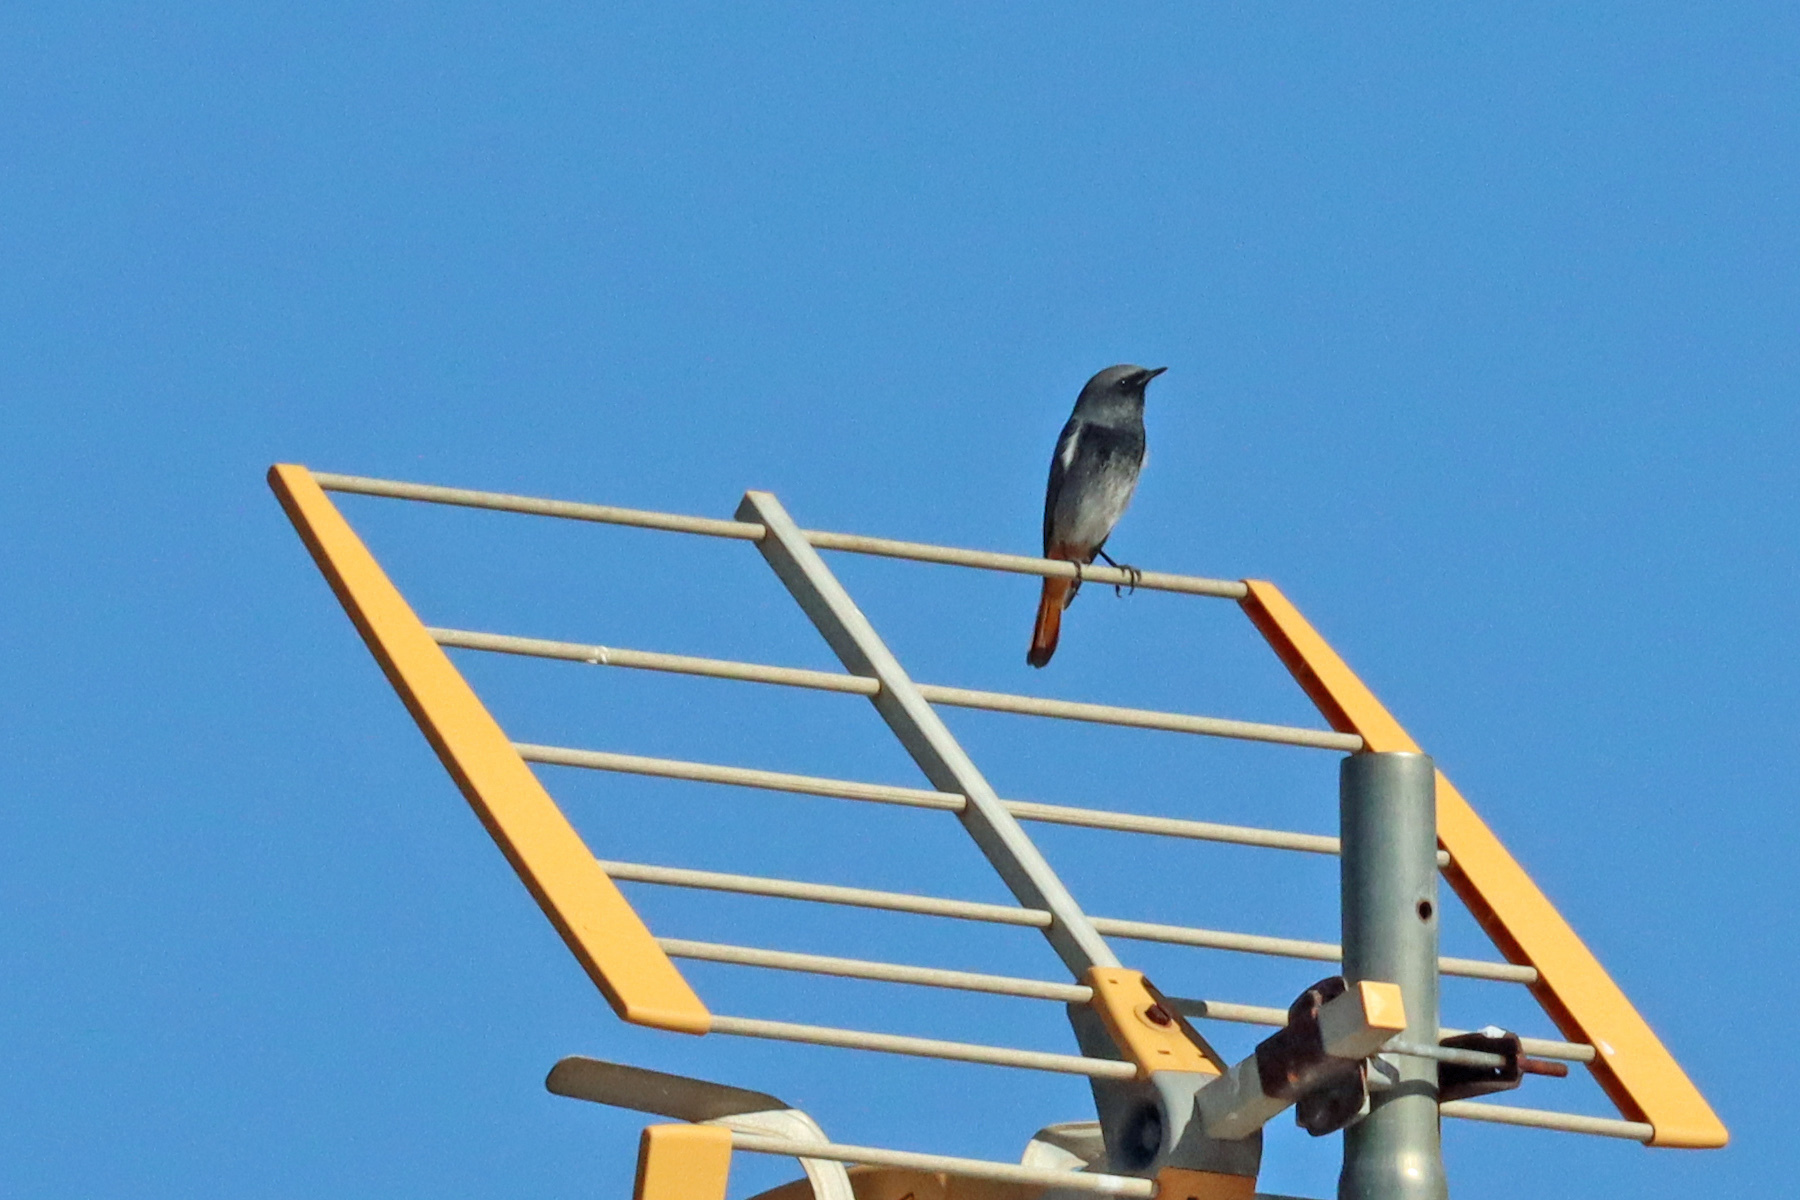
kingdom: Animalia
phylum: Chordata
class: Aves
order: Passeriformes
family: Muscicapidae
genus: Phoenicurus
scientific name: Phoenicurus ochruros
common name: Black redstart
